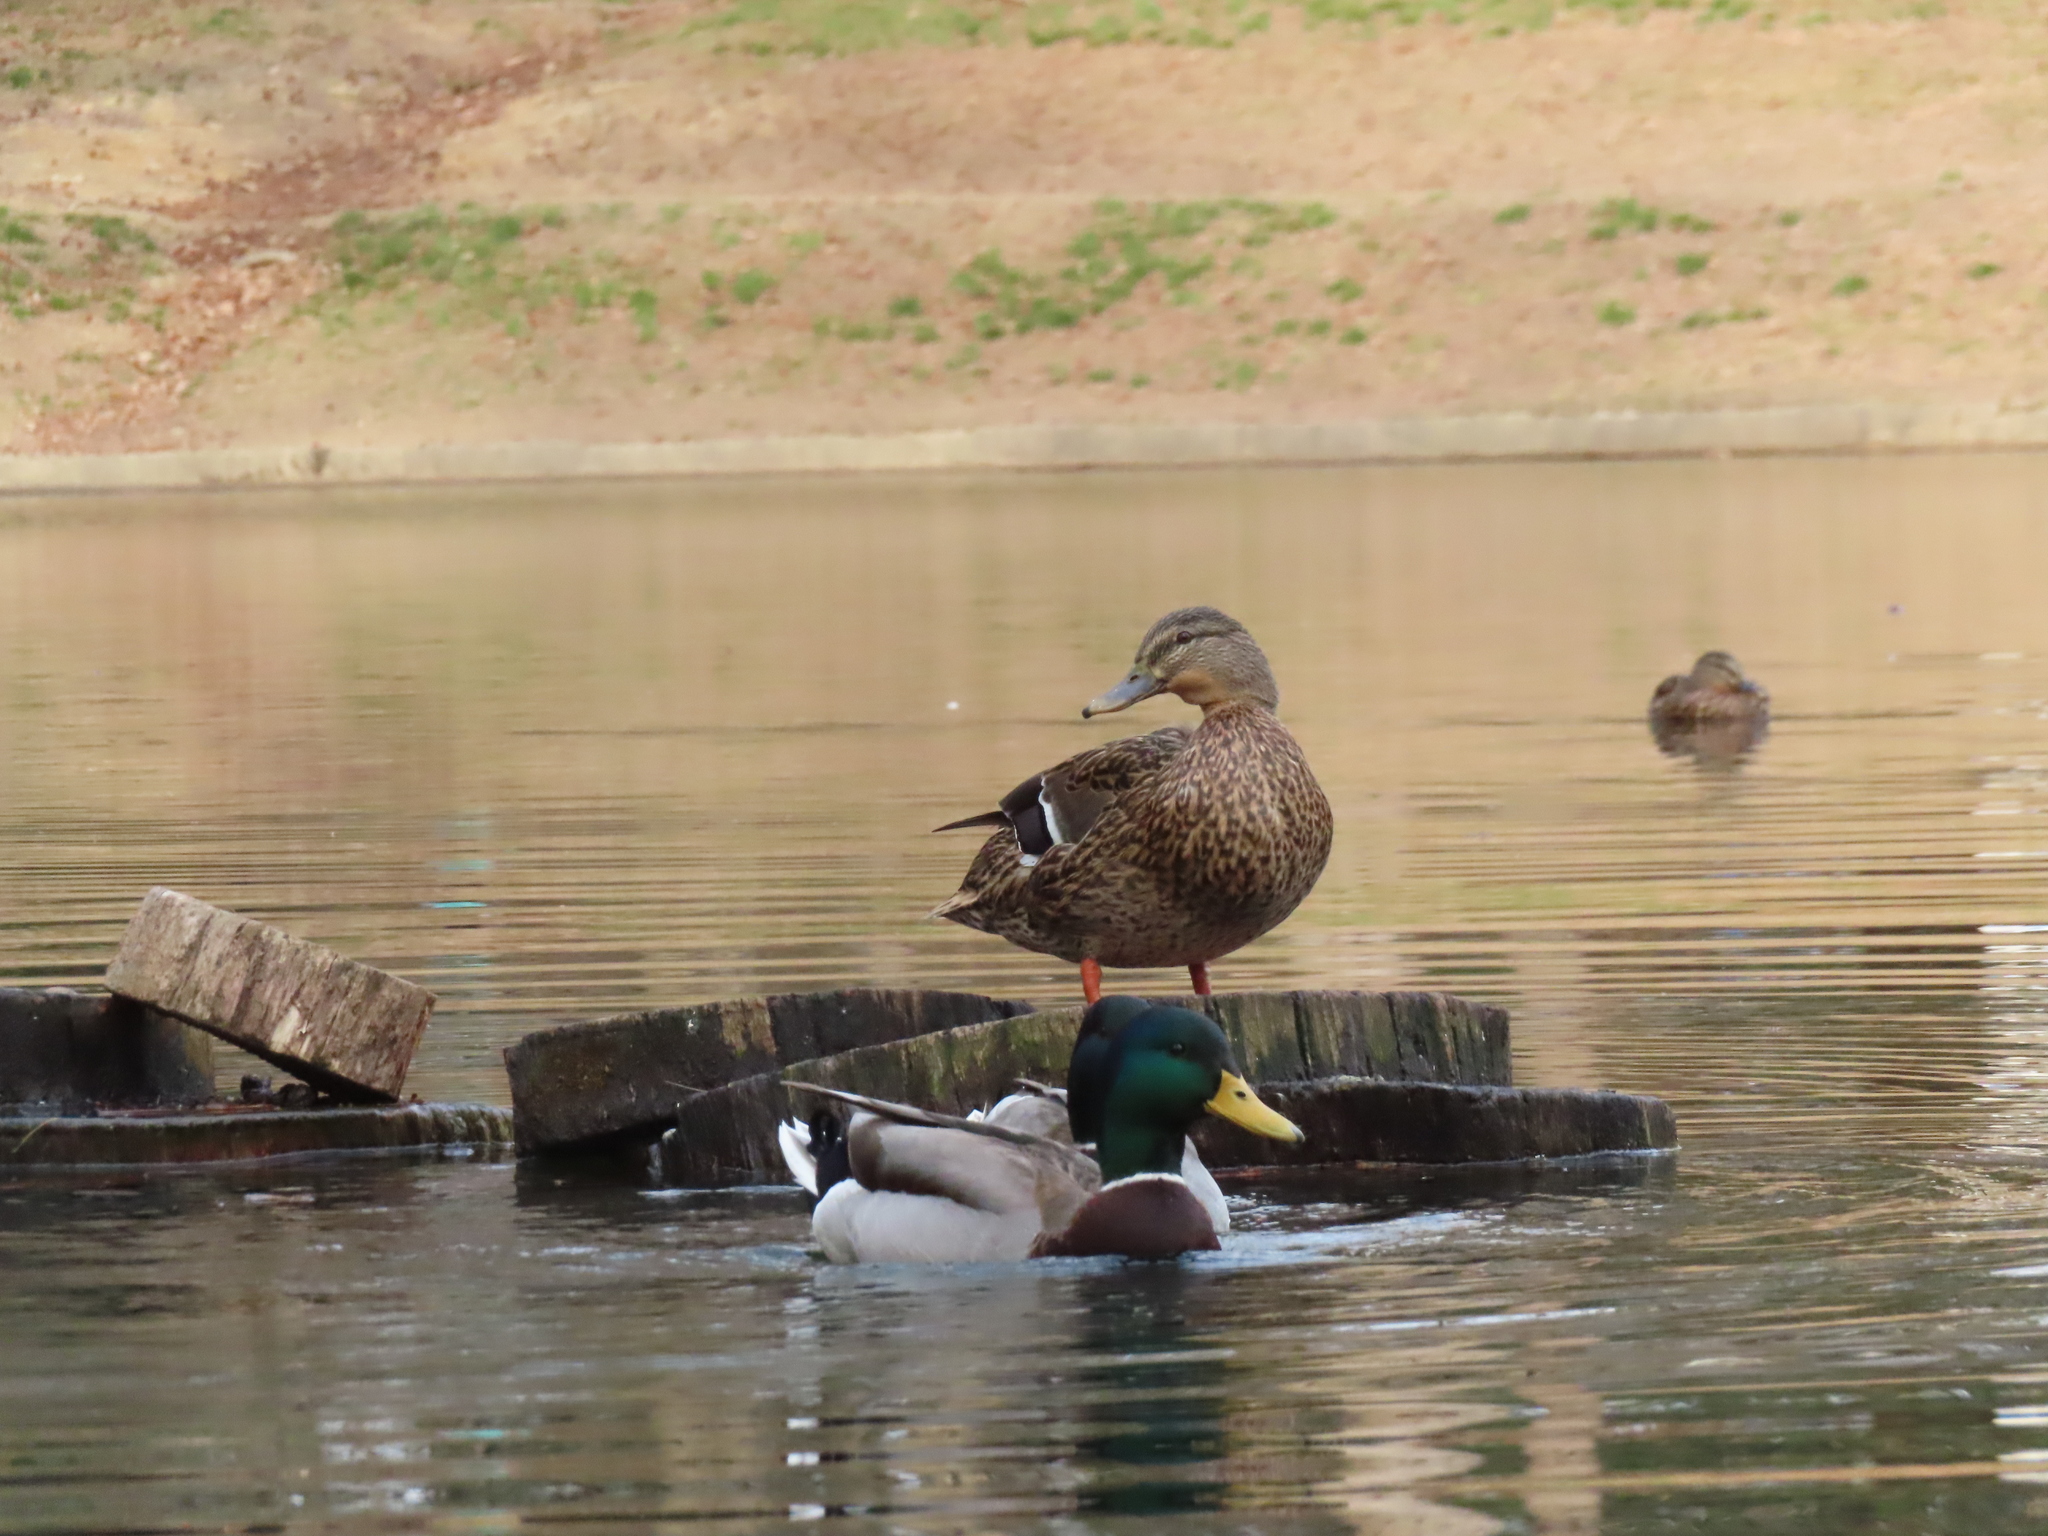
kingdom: Animalia
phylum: Chordata
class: Aves
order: Anseriformes
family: Anatidae
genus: Anas
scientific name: Anas platyrhynchos
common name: Mallard
